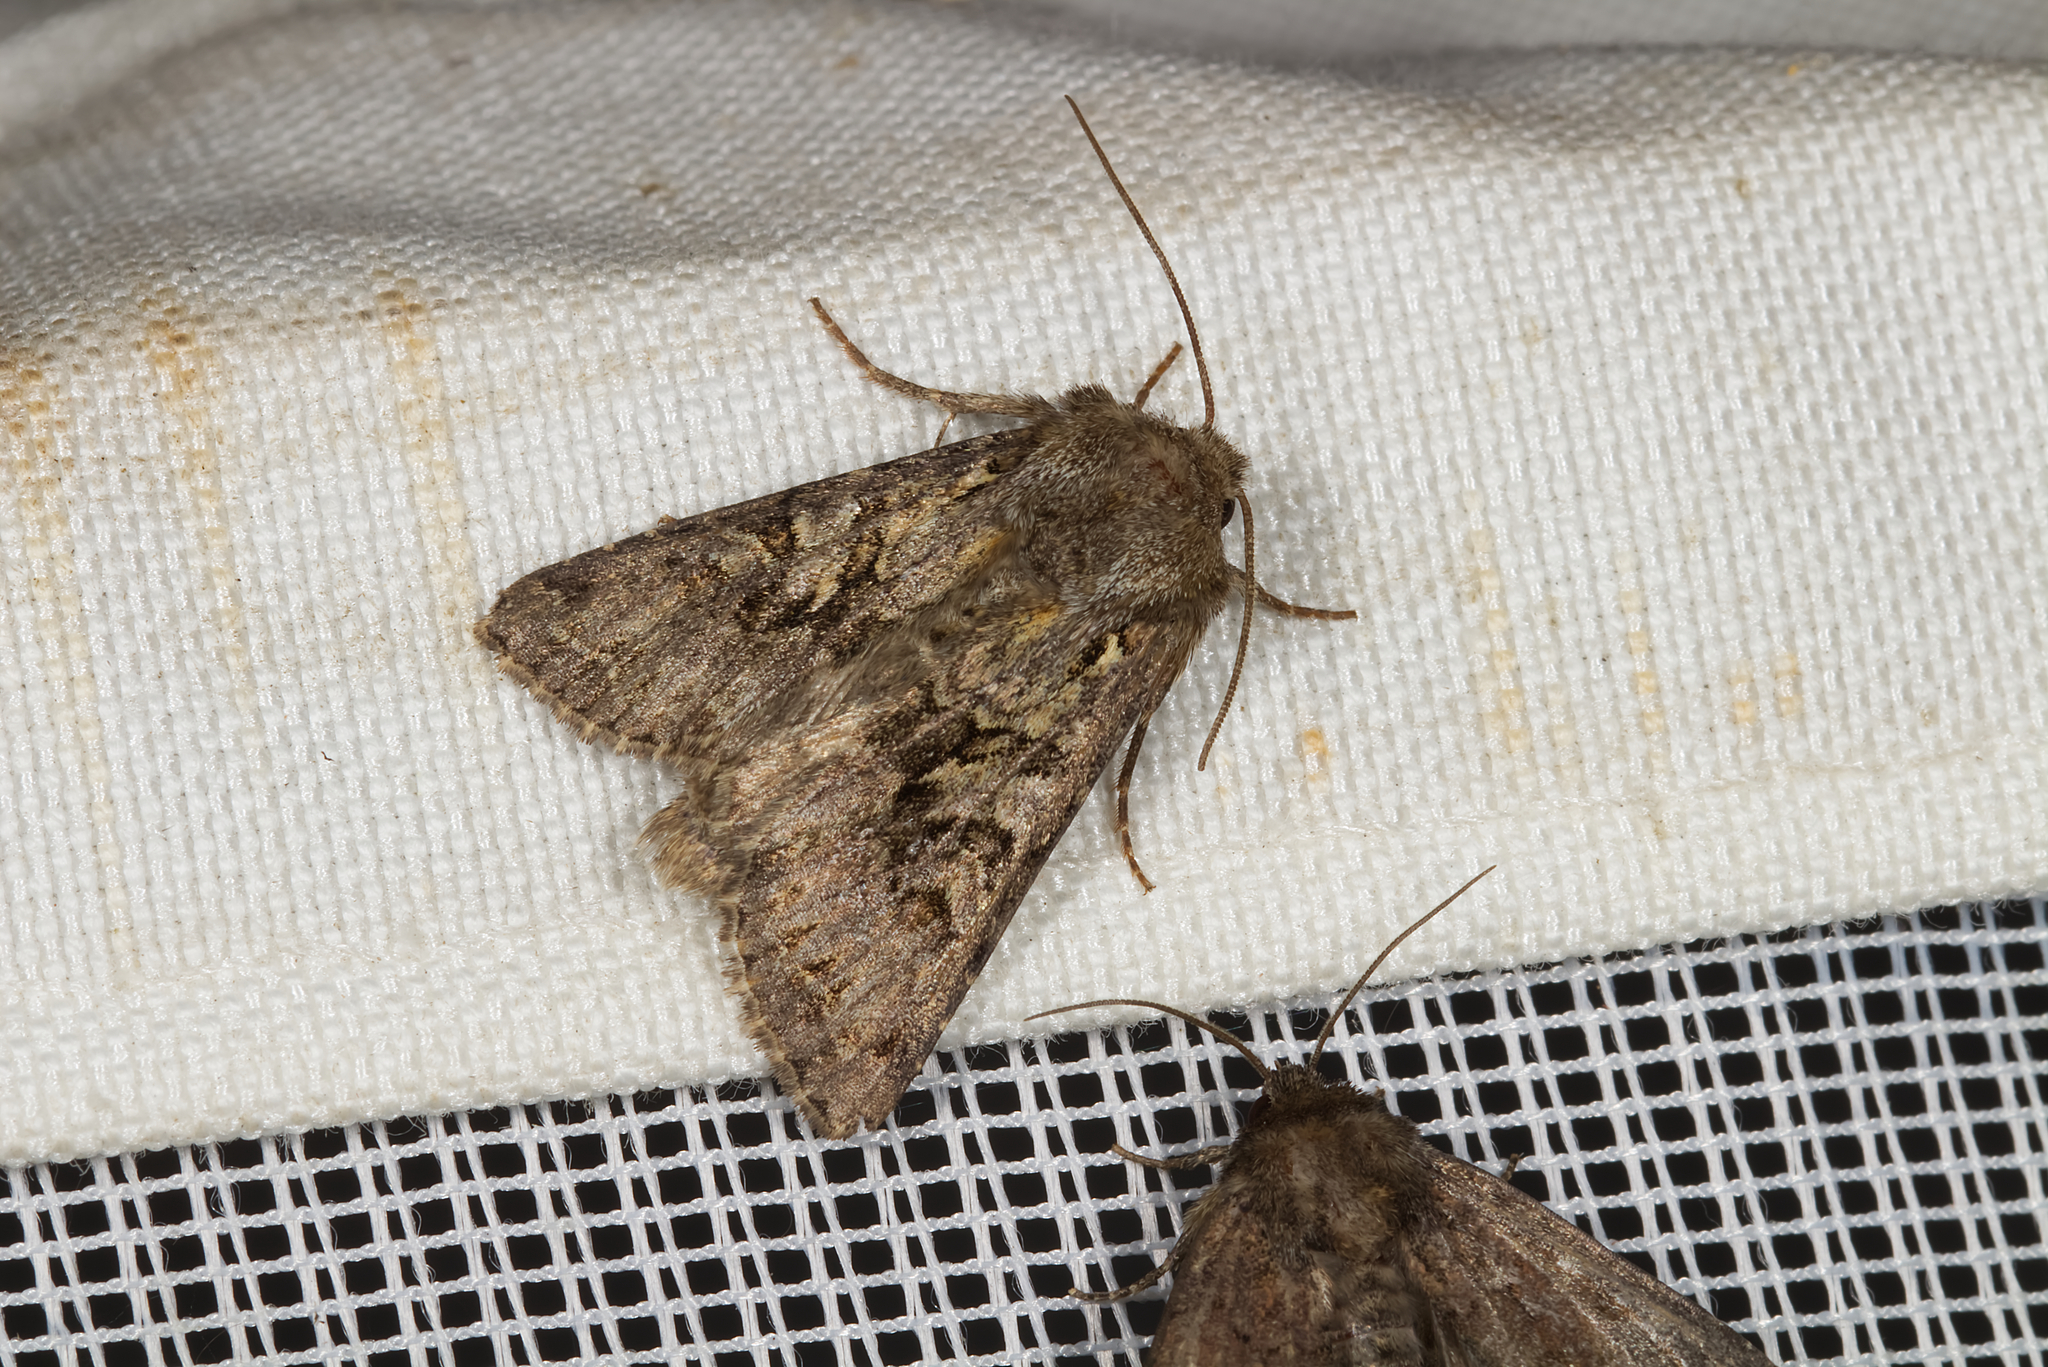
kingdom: Animalia
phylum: Arthropoda
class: Insecta
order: Lepidoptera
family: Noctuidae
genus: Hada
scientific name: Hada plebeja
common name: Shears
